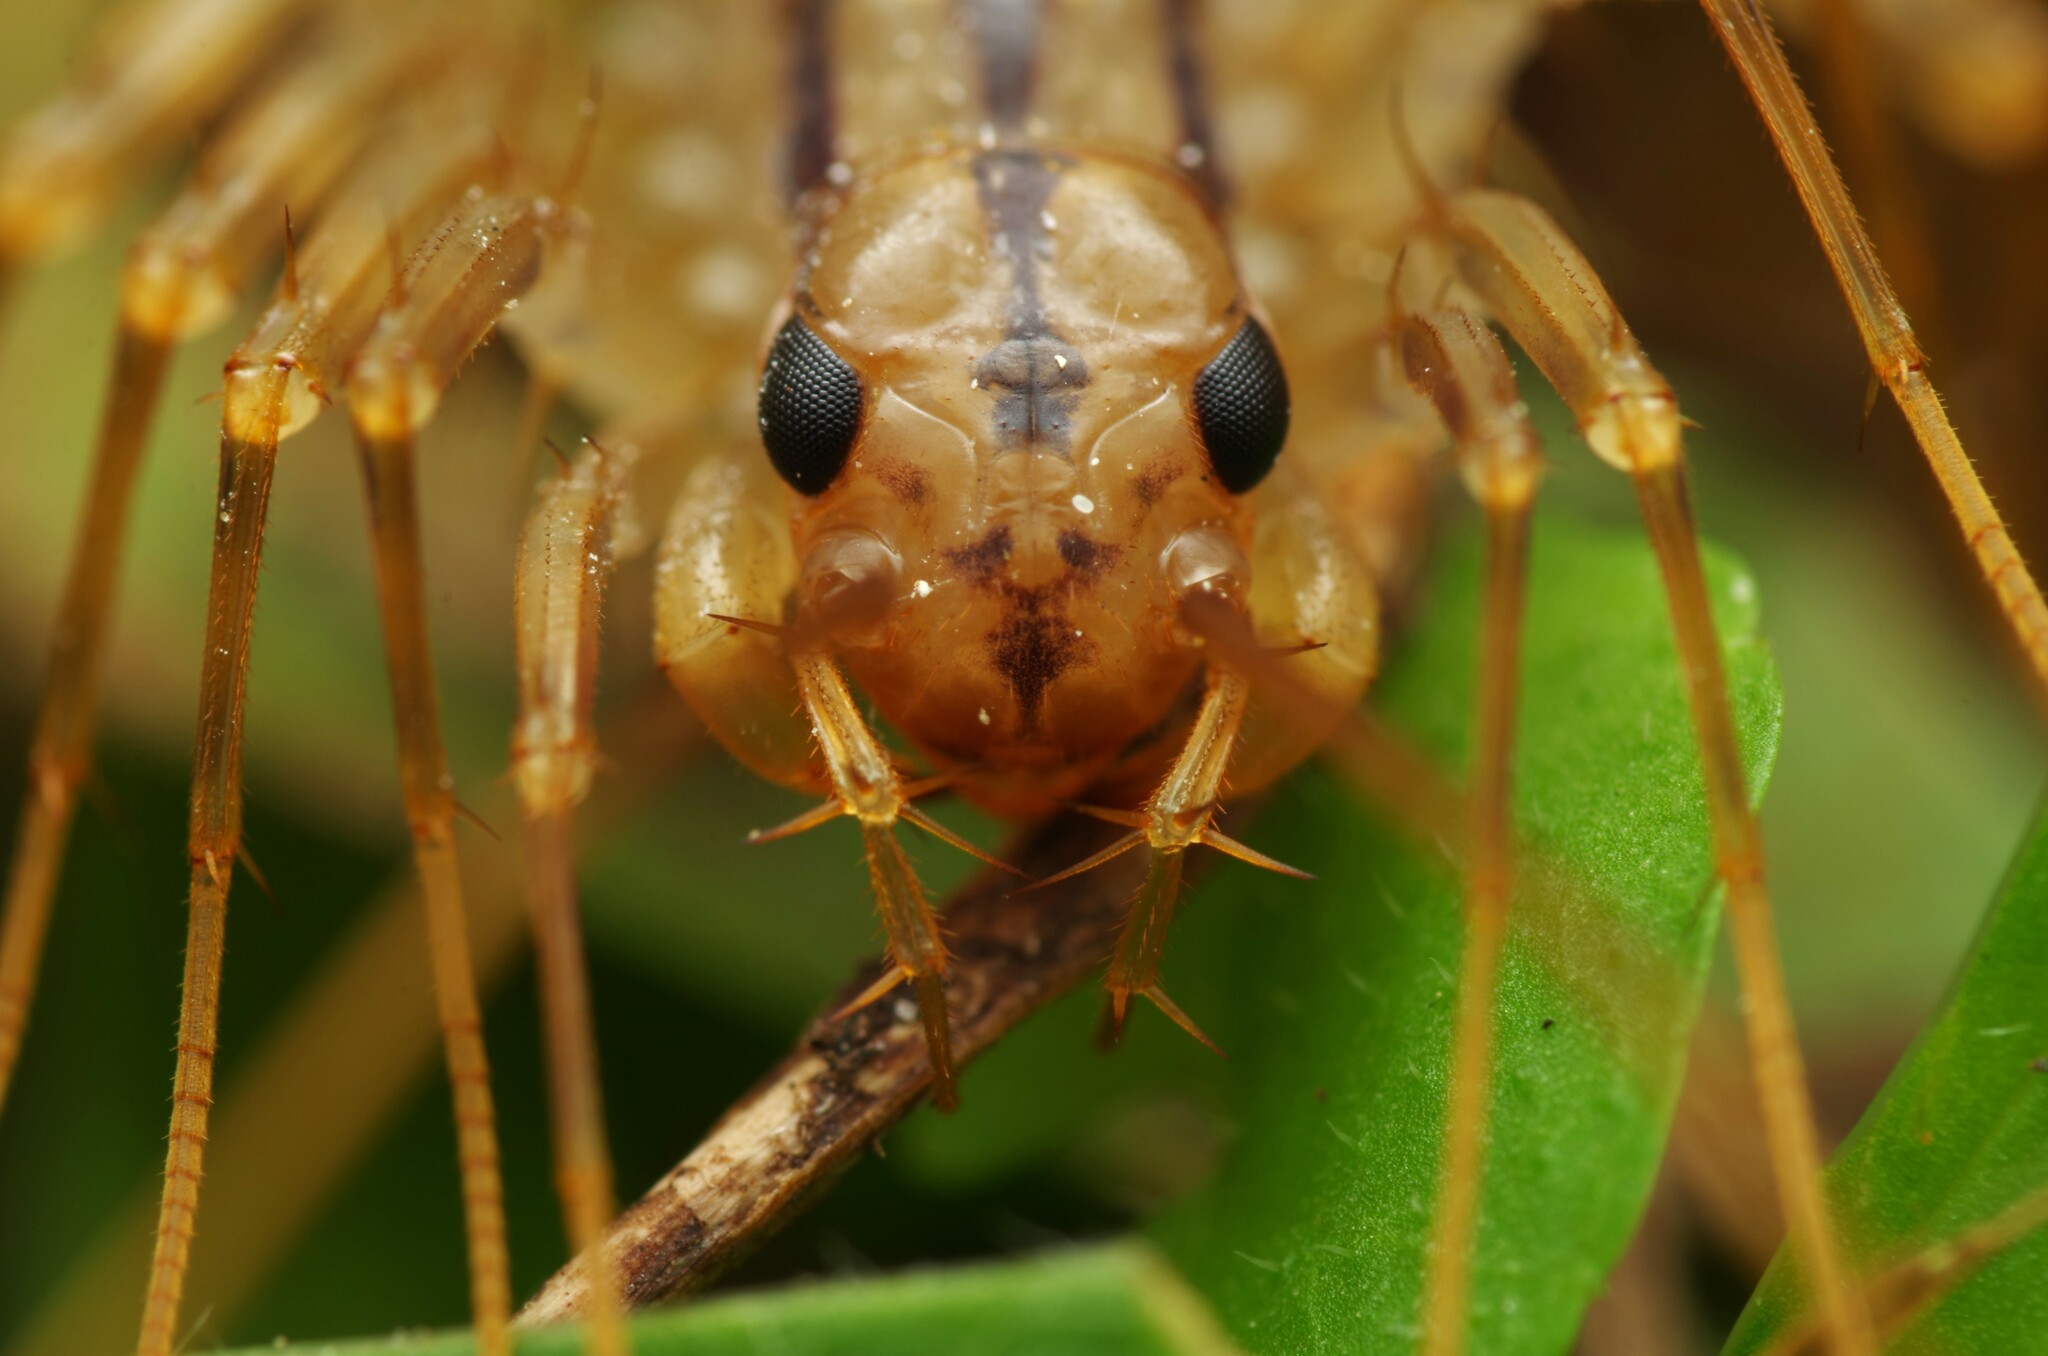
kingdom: Animalia
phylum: Arthropoda
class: Chilopoda
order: Scutigeromorpha
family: Scutigeridae
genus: Scutigera
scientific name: Scutigera coleoptrata
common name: House centipede
